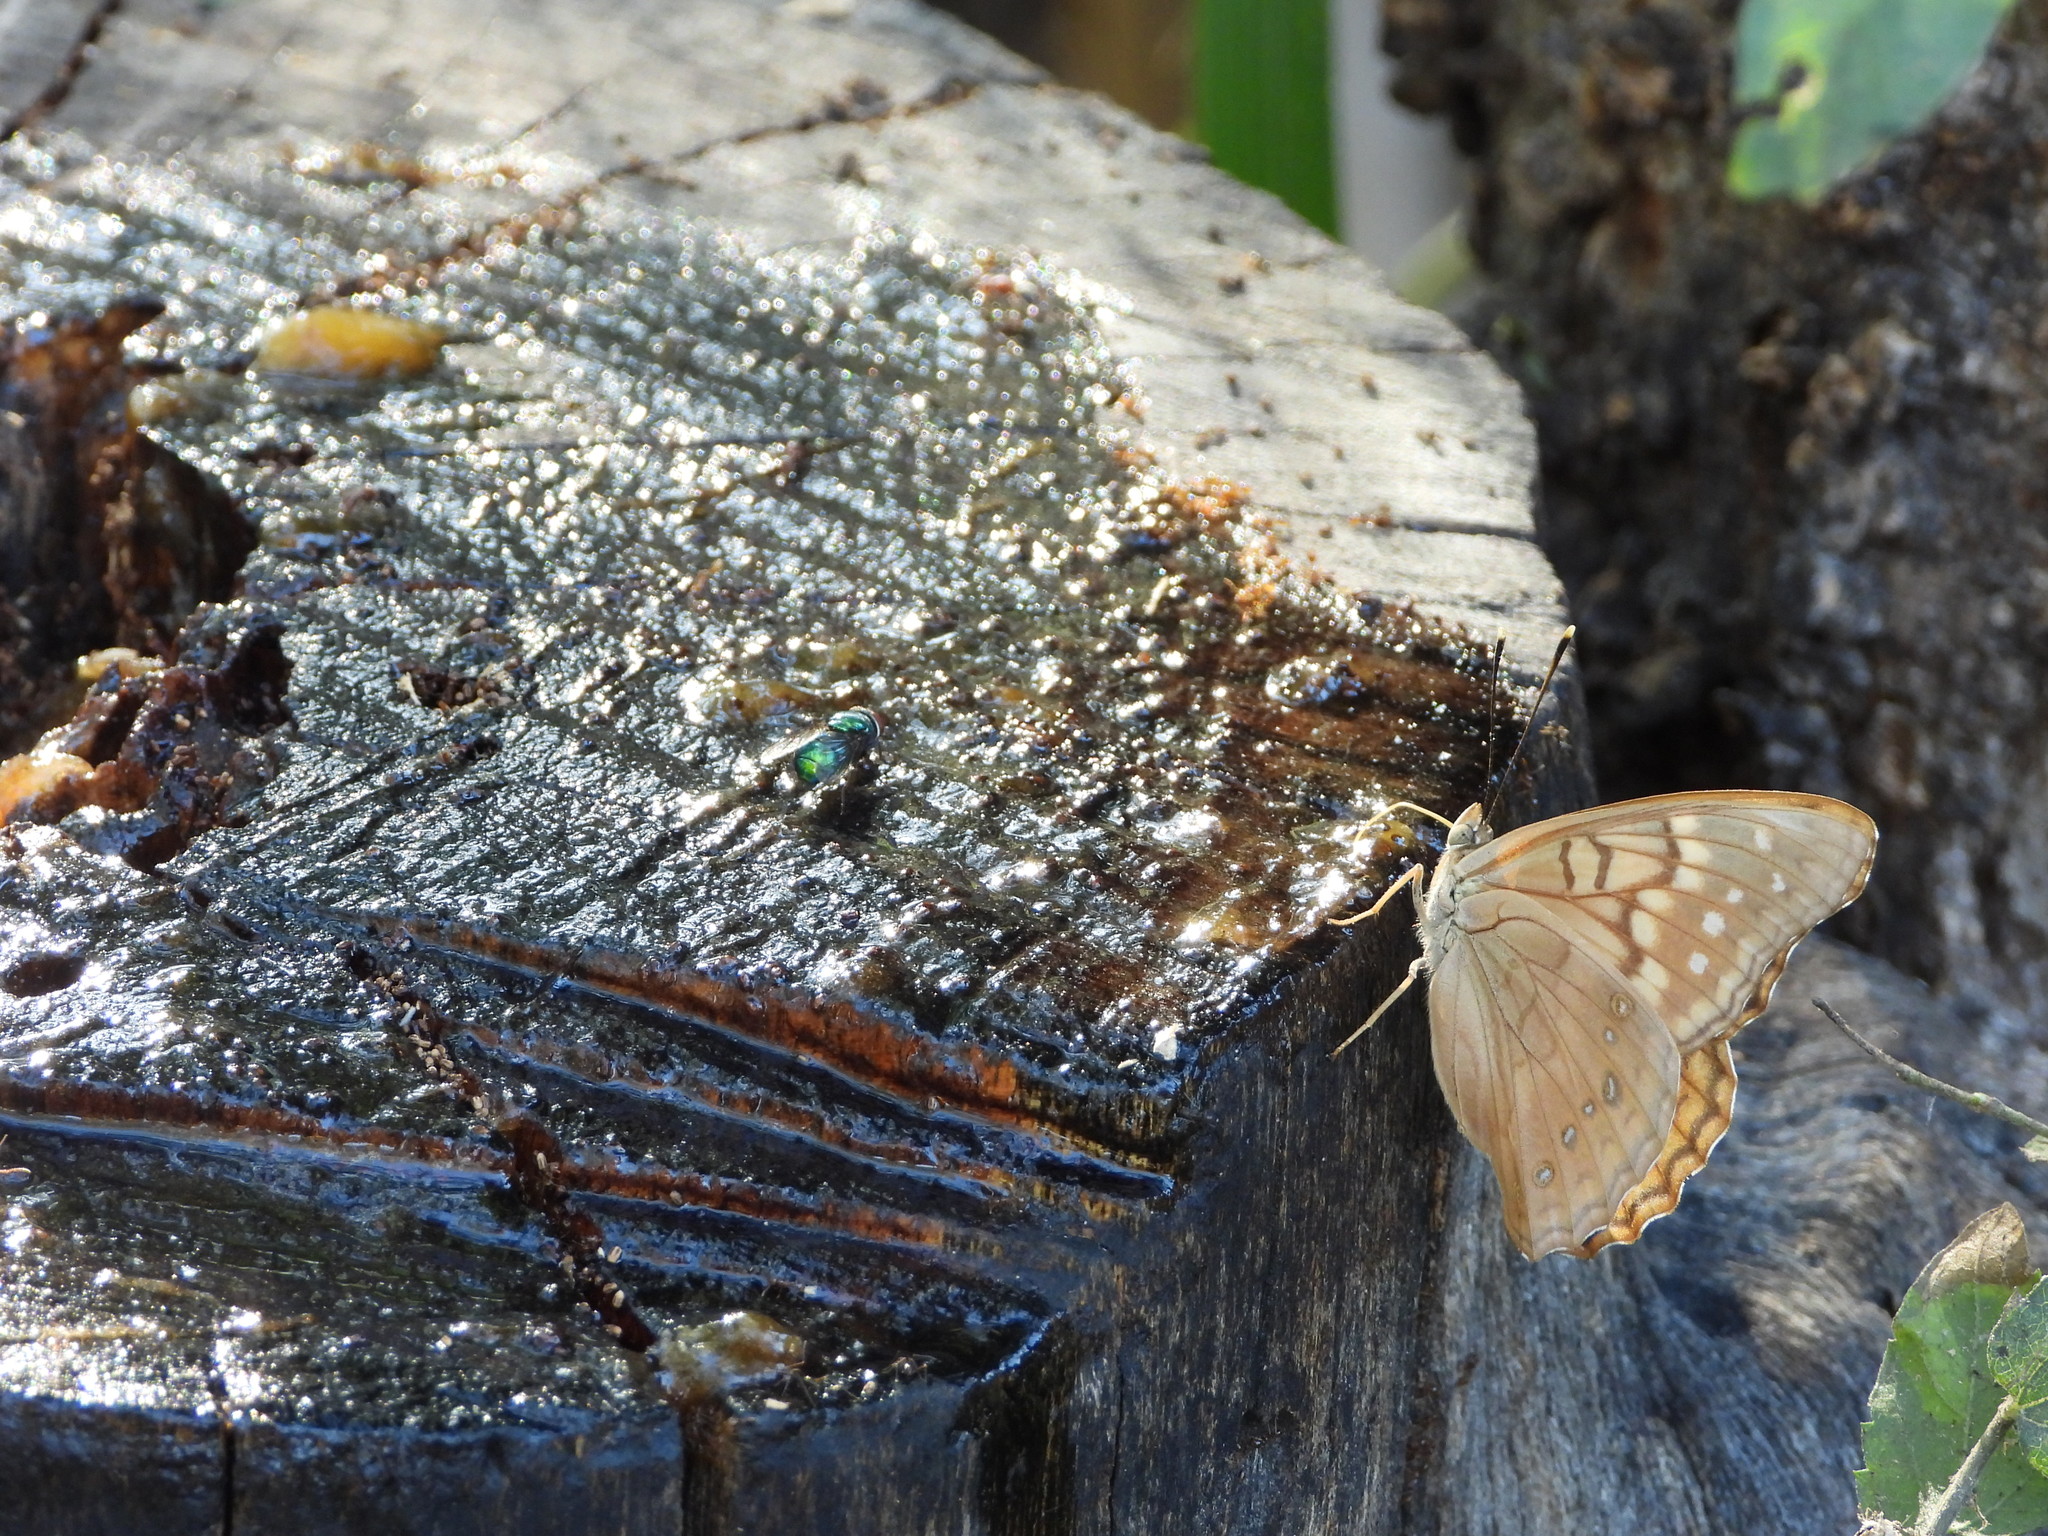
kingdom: Animalia
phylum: Arthropoda
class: Insecta
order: Lepidoptera
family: Nymphalidae
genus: Asterocampa
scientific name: Asterocampa clyton
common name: Tawny emperor
